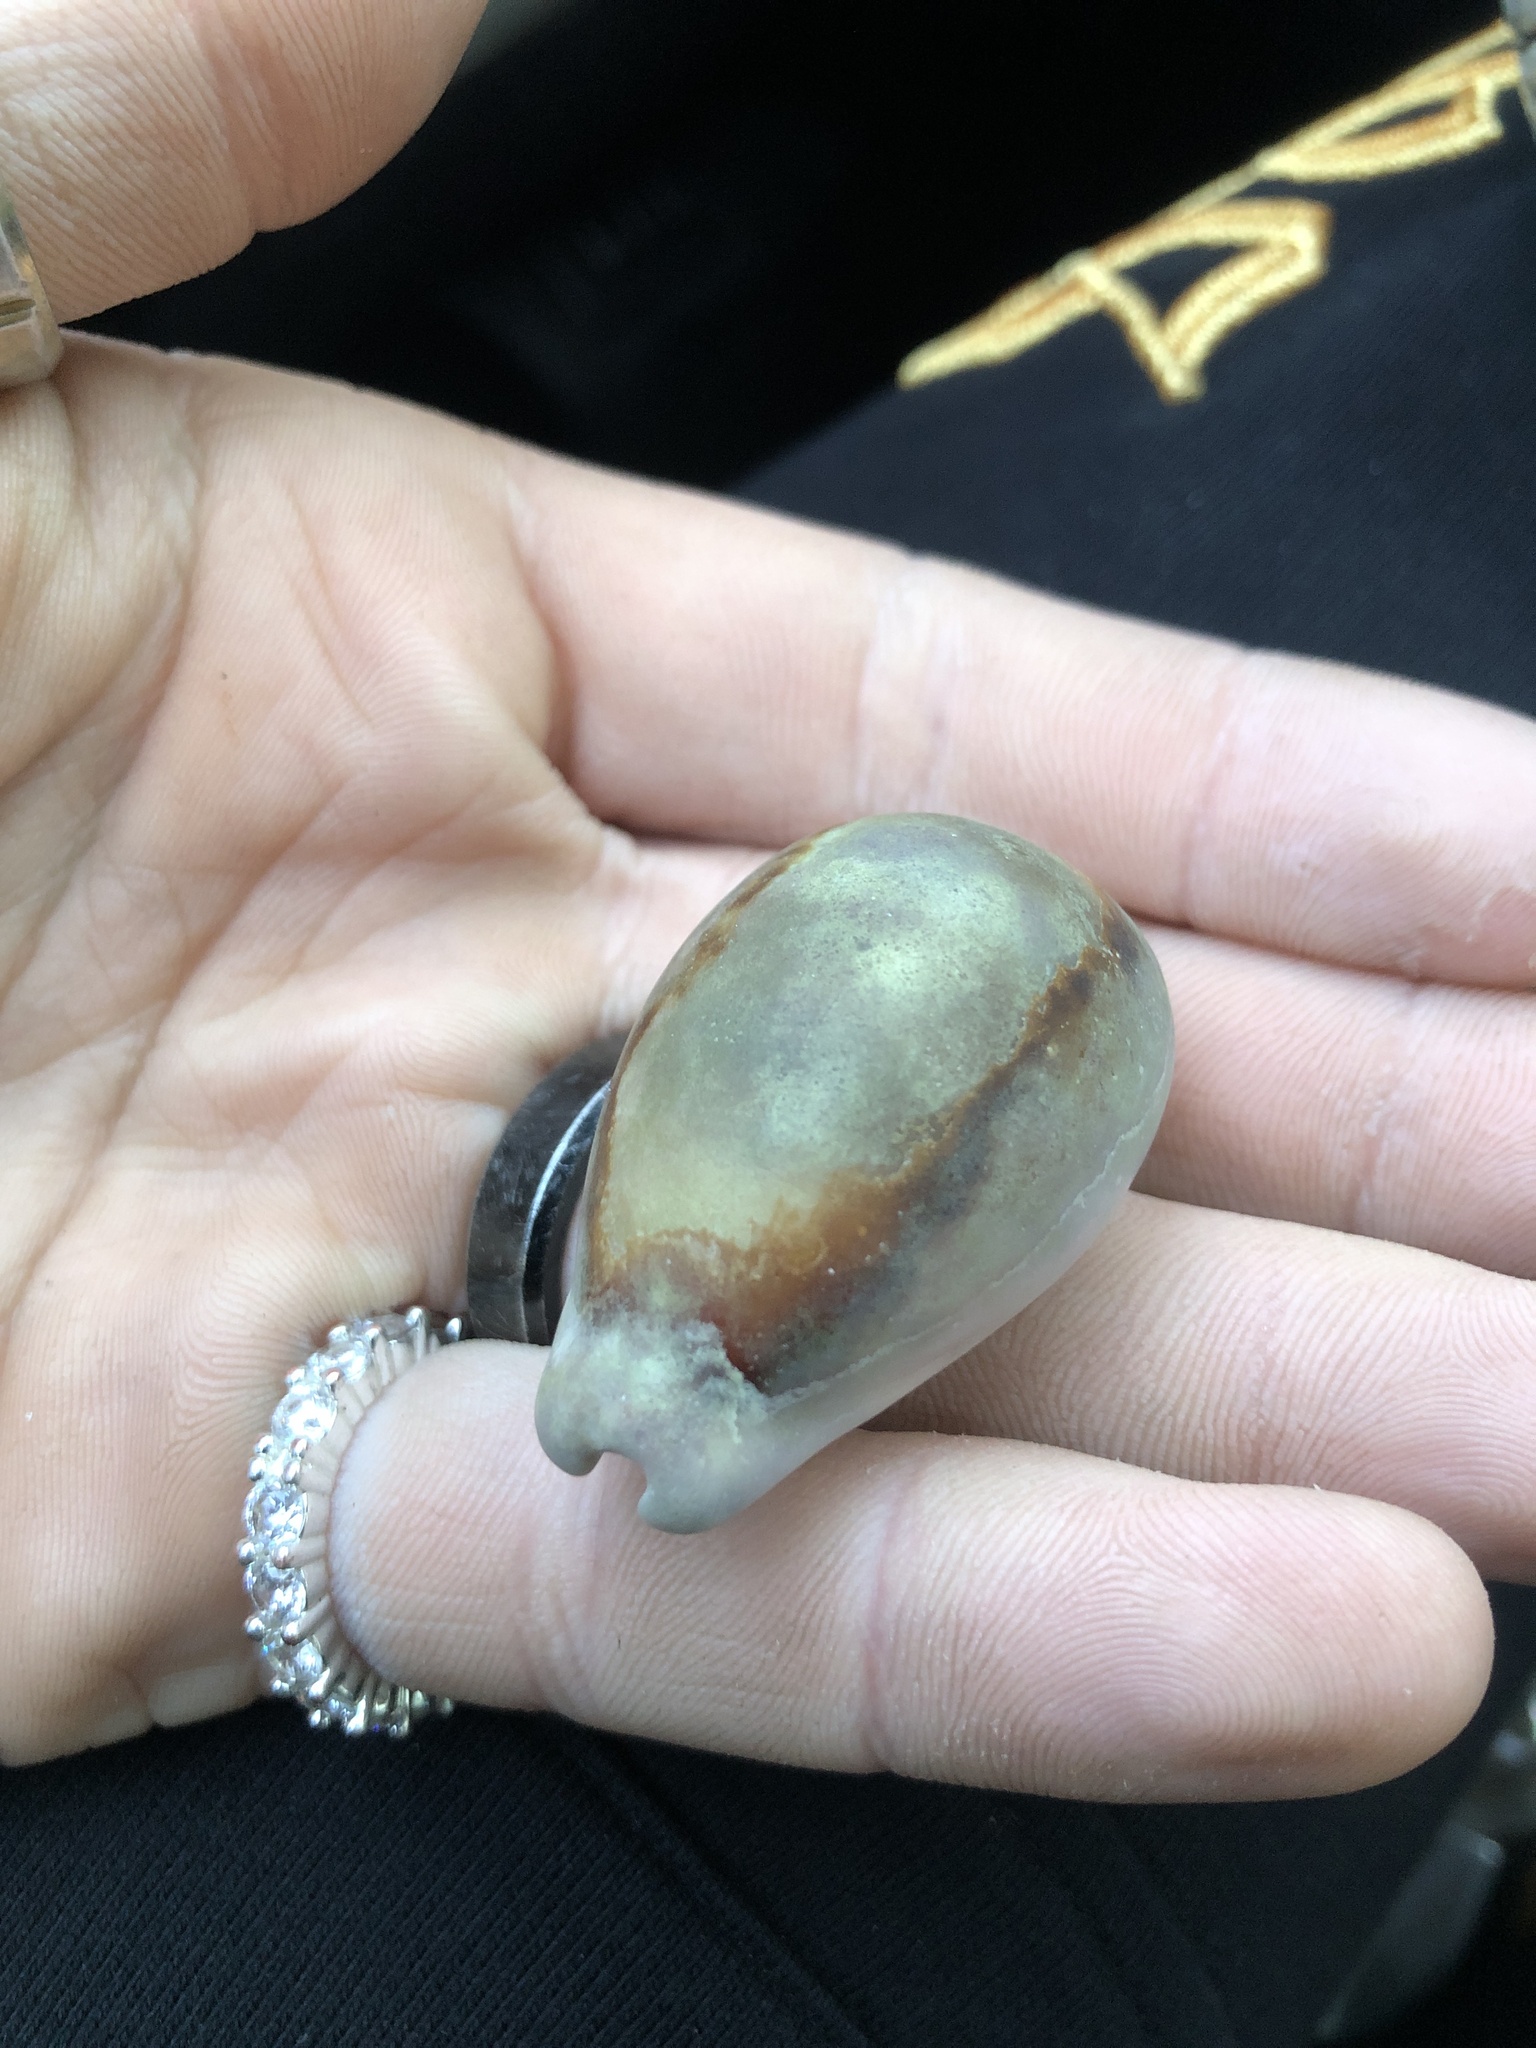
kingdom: Animalia
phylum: Mollusca
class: Gastropoda
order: Littorinimorpha
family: Cypraeidae
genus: Neobernaya
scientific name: Neobernaya spadicea
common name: Chestnut cowrie
